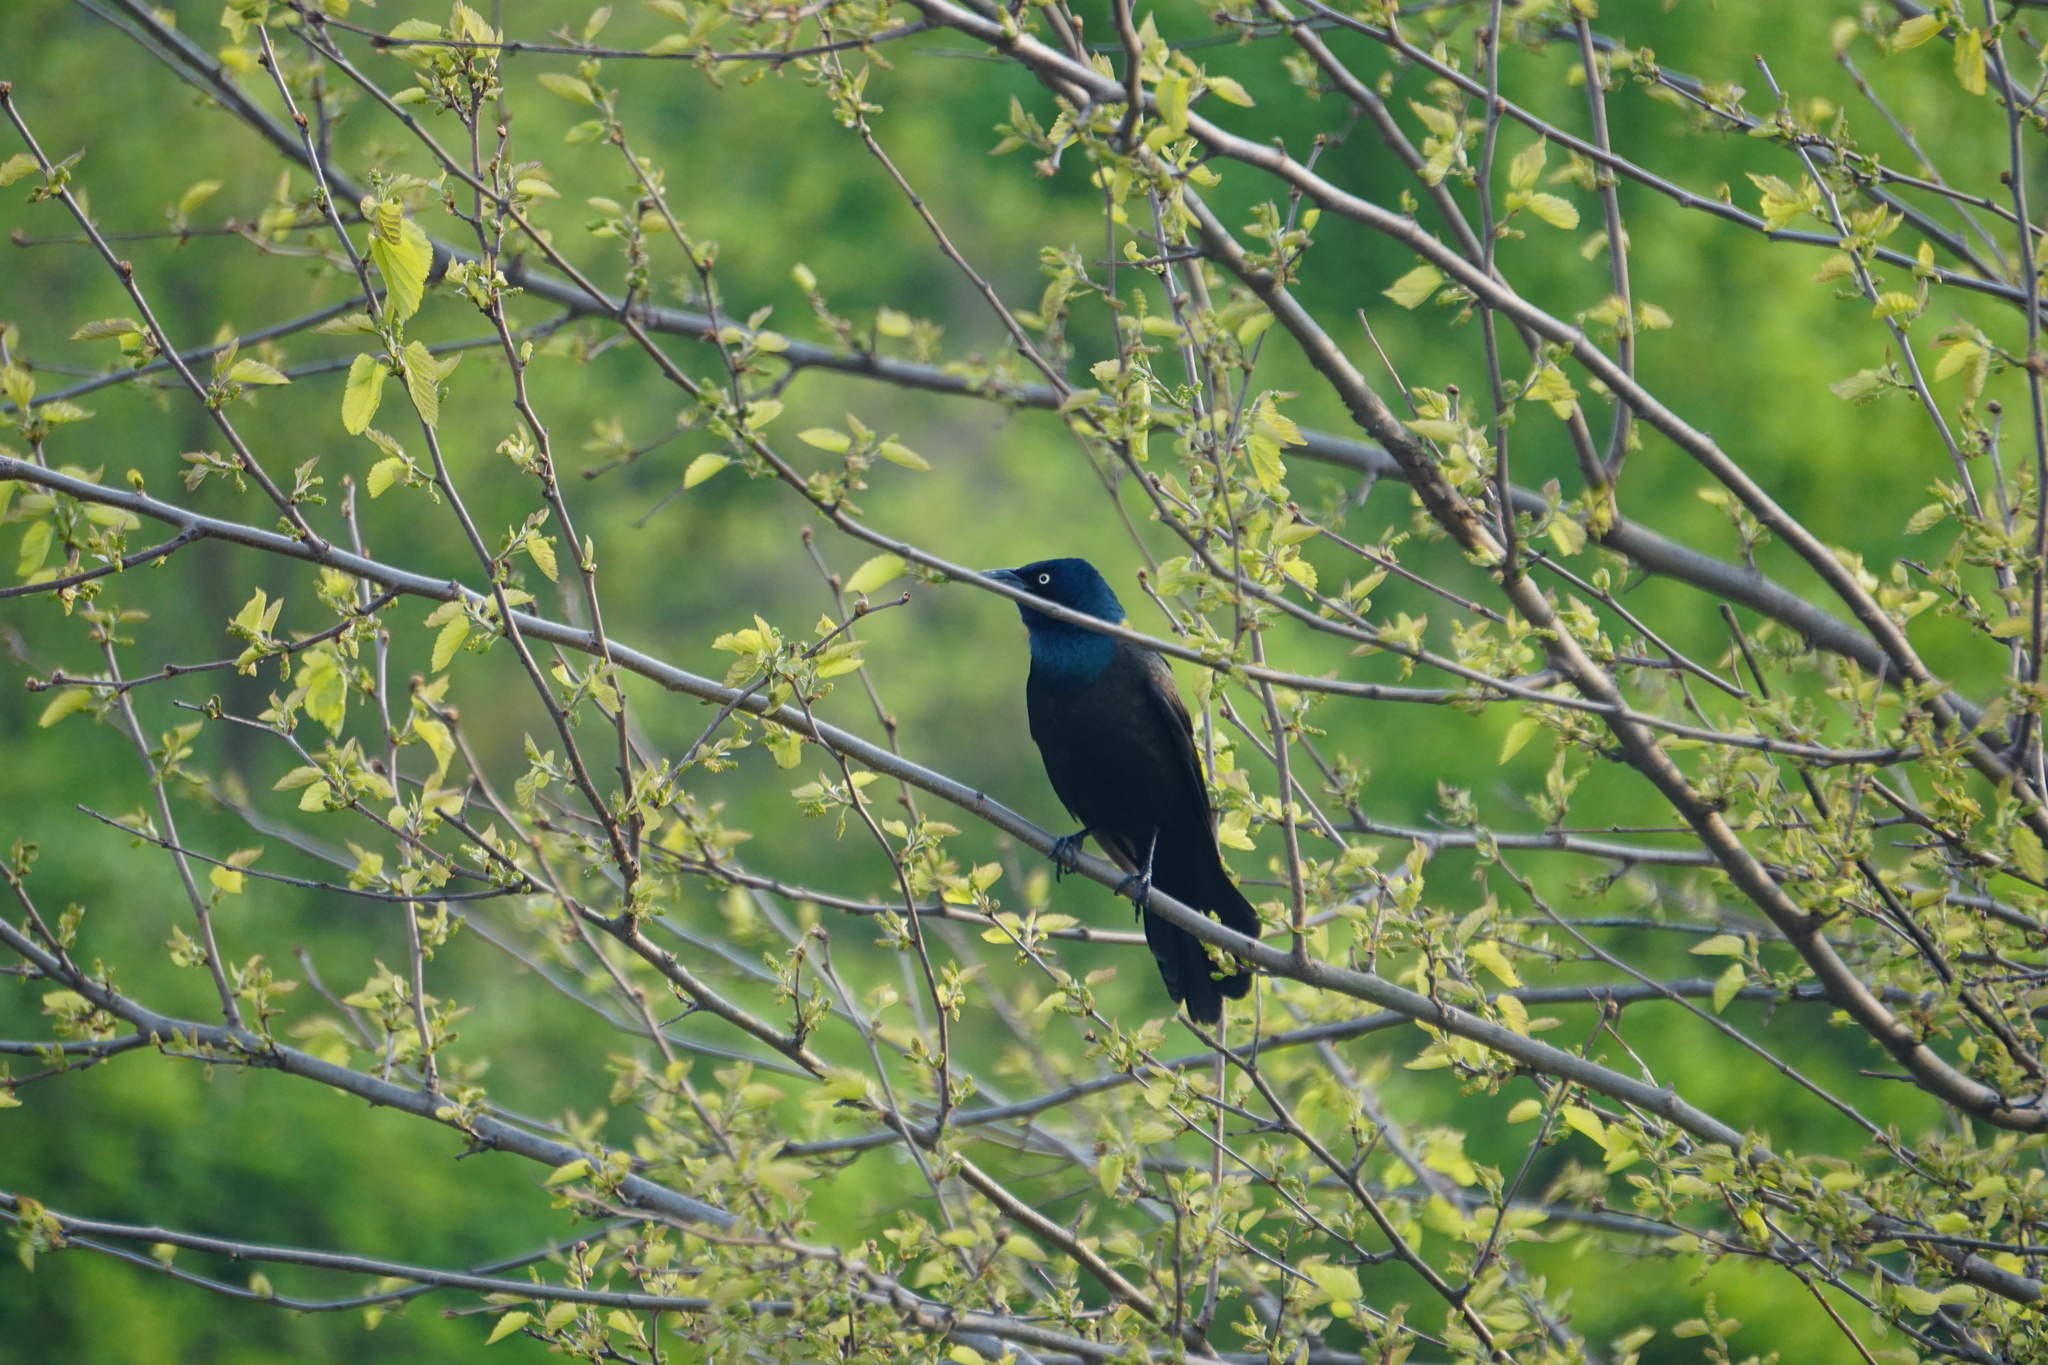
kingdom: Animalia
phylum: Chordata
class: Aves
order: Passeriformes
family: Icteridae
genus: Quiscalus
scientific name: Quiscalus quiscula
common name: Common grackle
